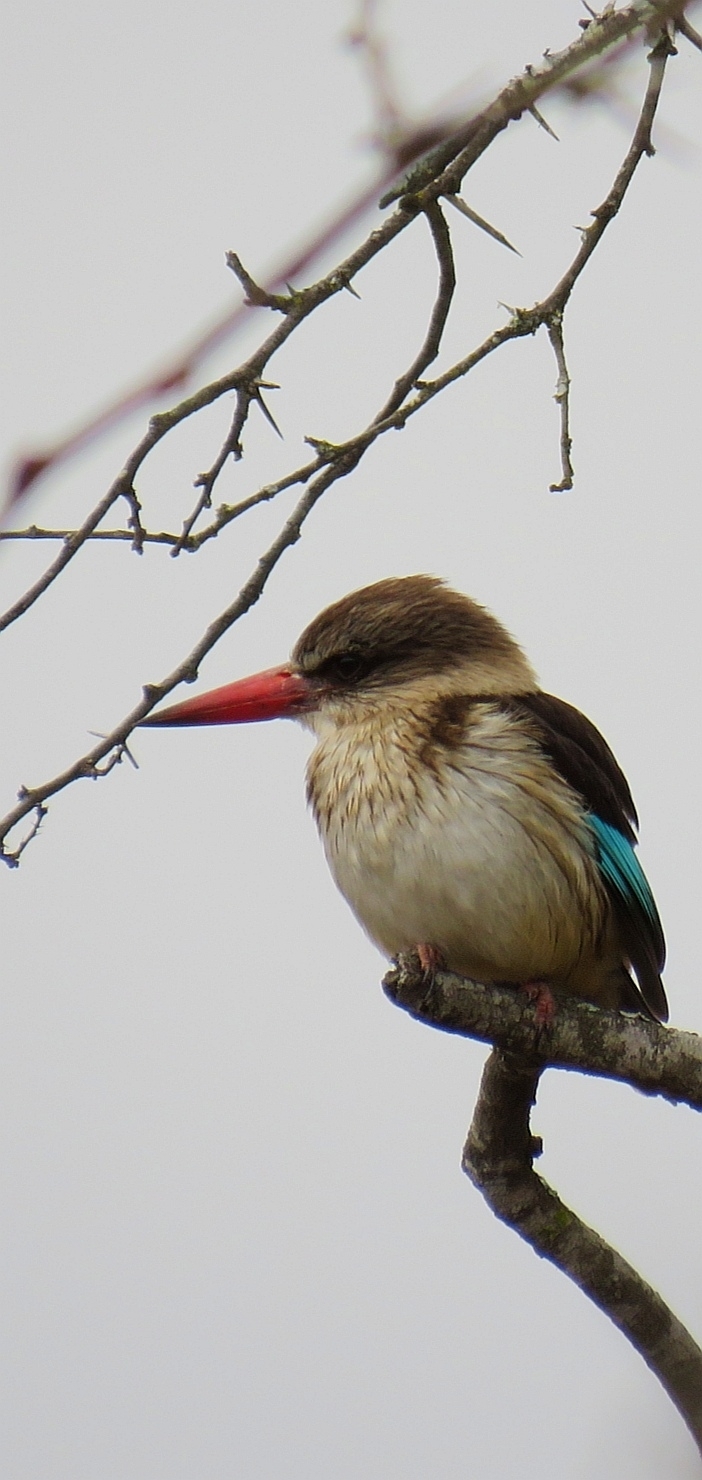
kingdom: Animalia
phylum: Chordata
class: Aves
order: Coraciiformes
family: Alcedinidae
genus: Halcyon
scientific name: Halcyon albiventris
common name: Brown-hooded kingfisher
